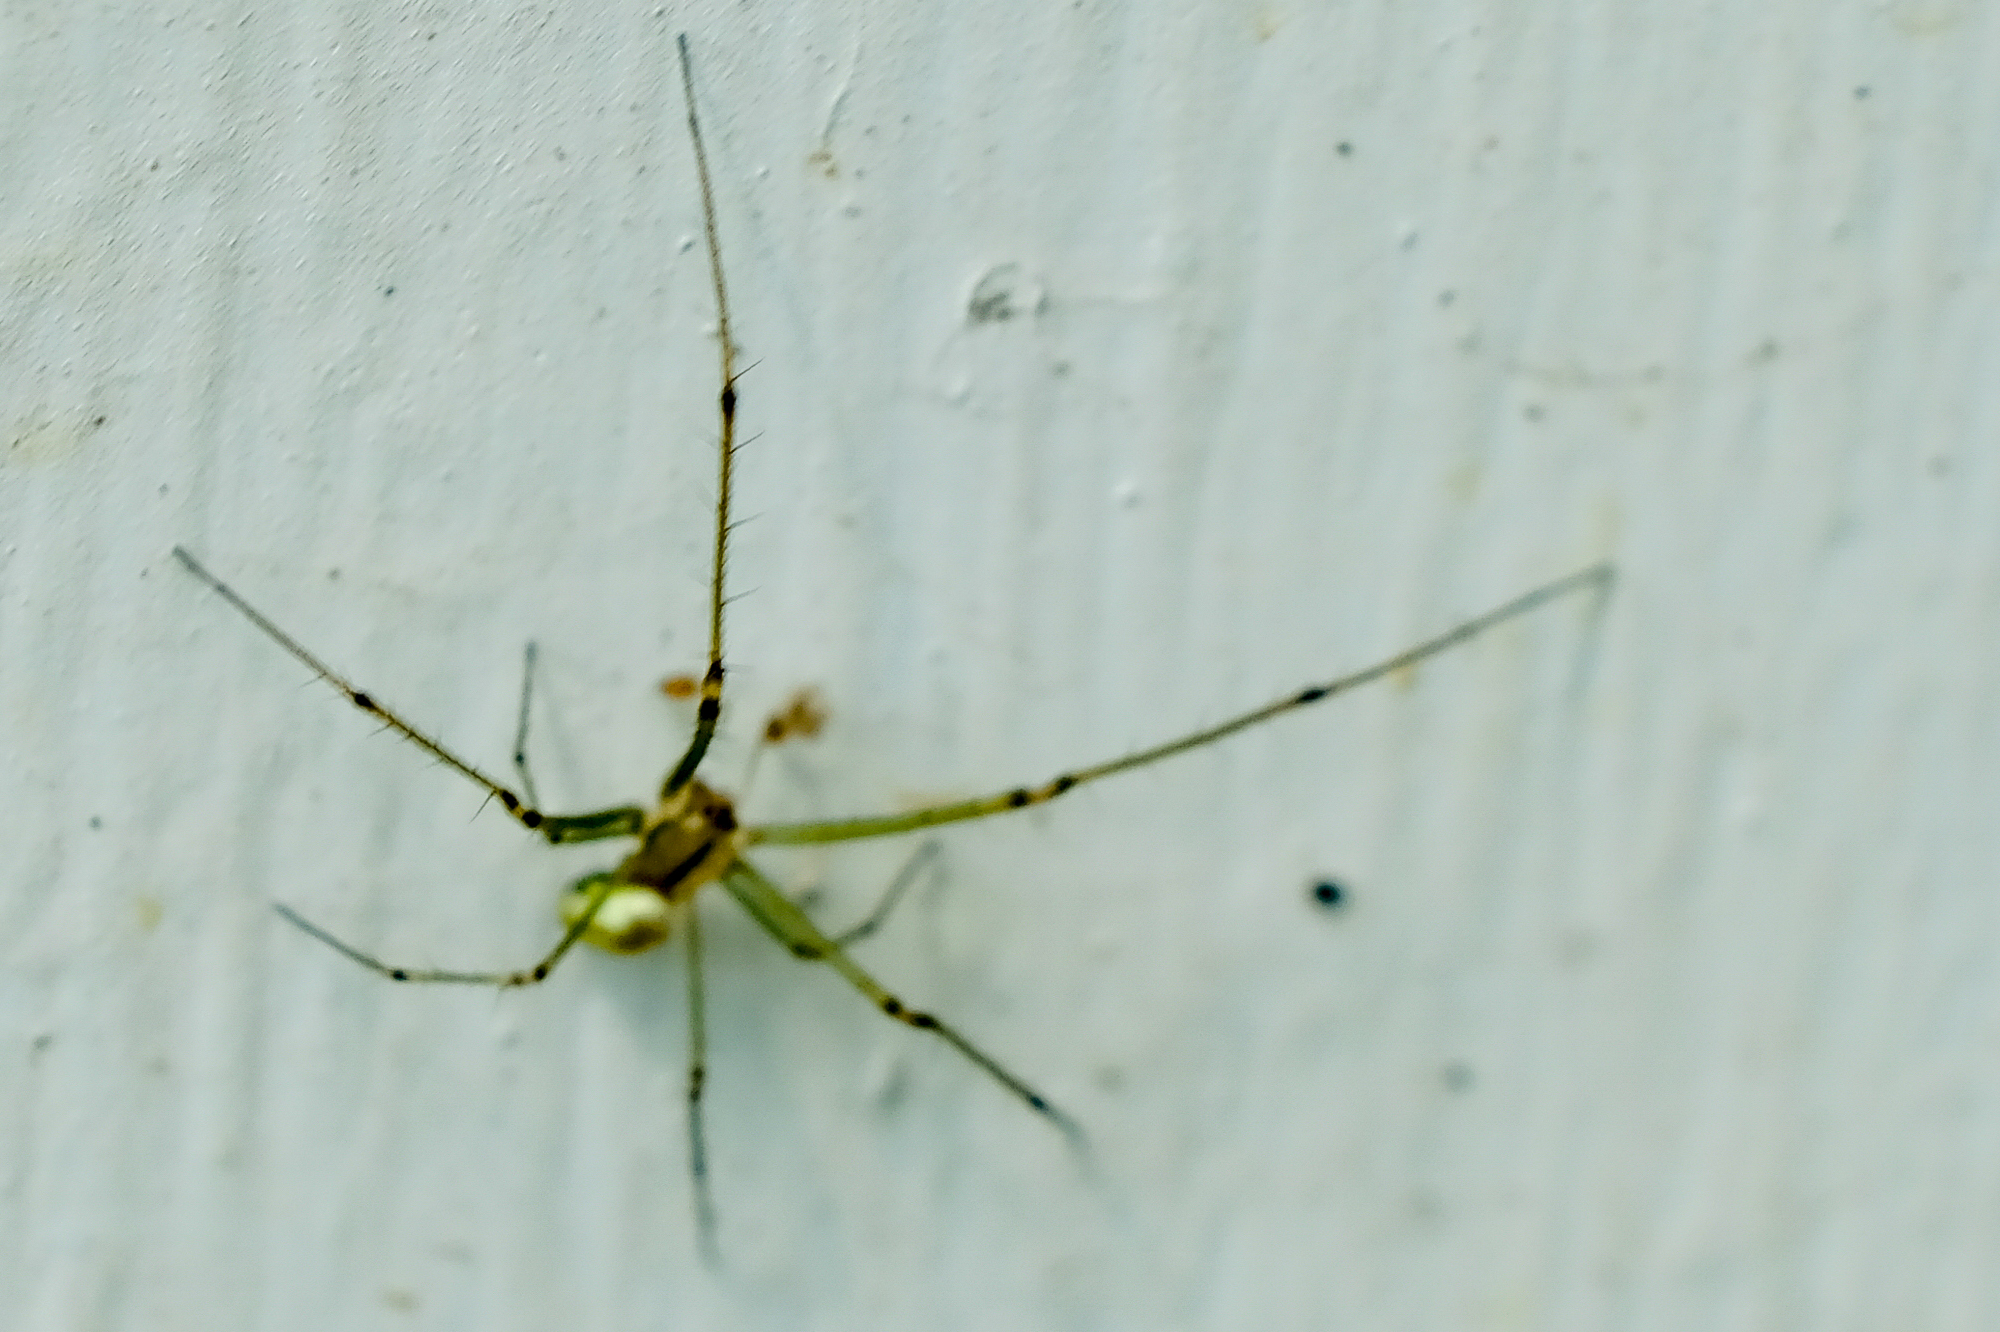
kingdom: Animalia
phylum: Arthropoda
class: Arachnida
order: Araneae
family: Tetragnathidae
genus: Leucauge
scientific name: Leucauge venusta
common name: Longjawed orb weavers
